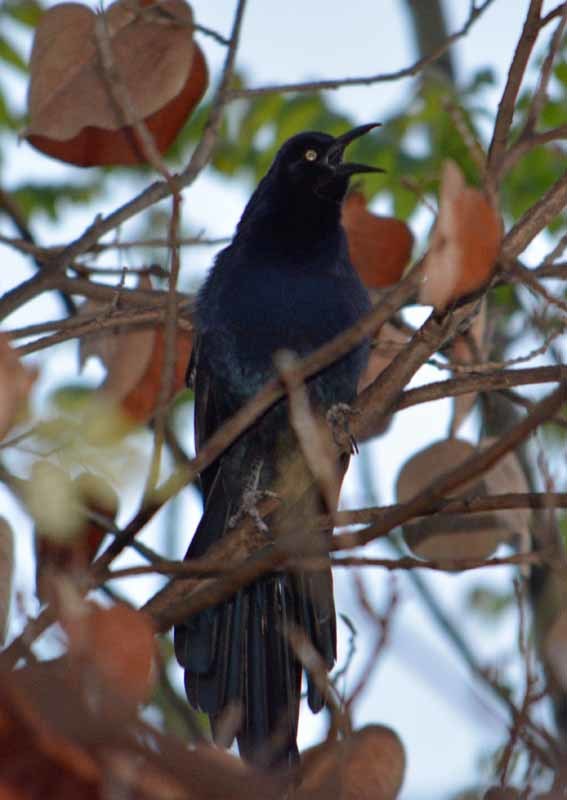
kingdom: Animalia
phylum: Chordata
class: Aves
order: Passeriformes
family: Icteridae
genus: Quiscalus
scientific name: Quiscalus mexicanus
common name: Great-tailed grackle
